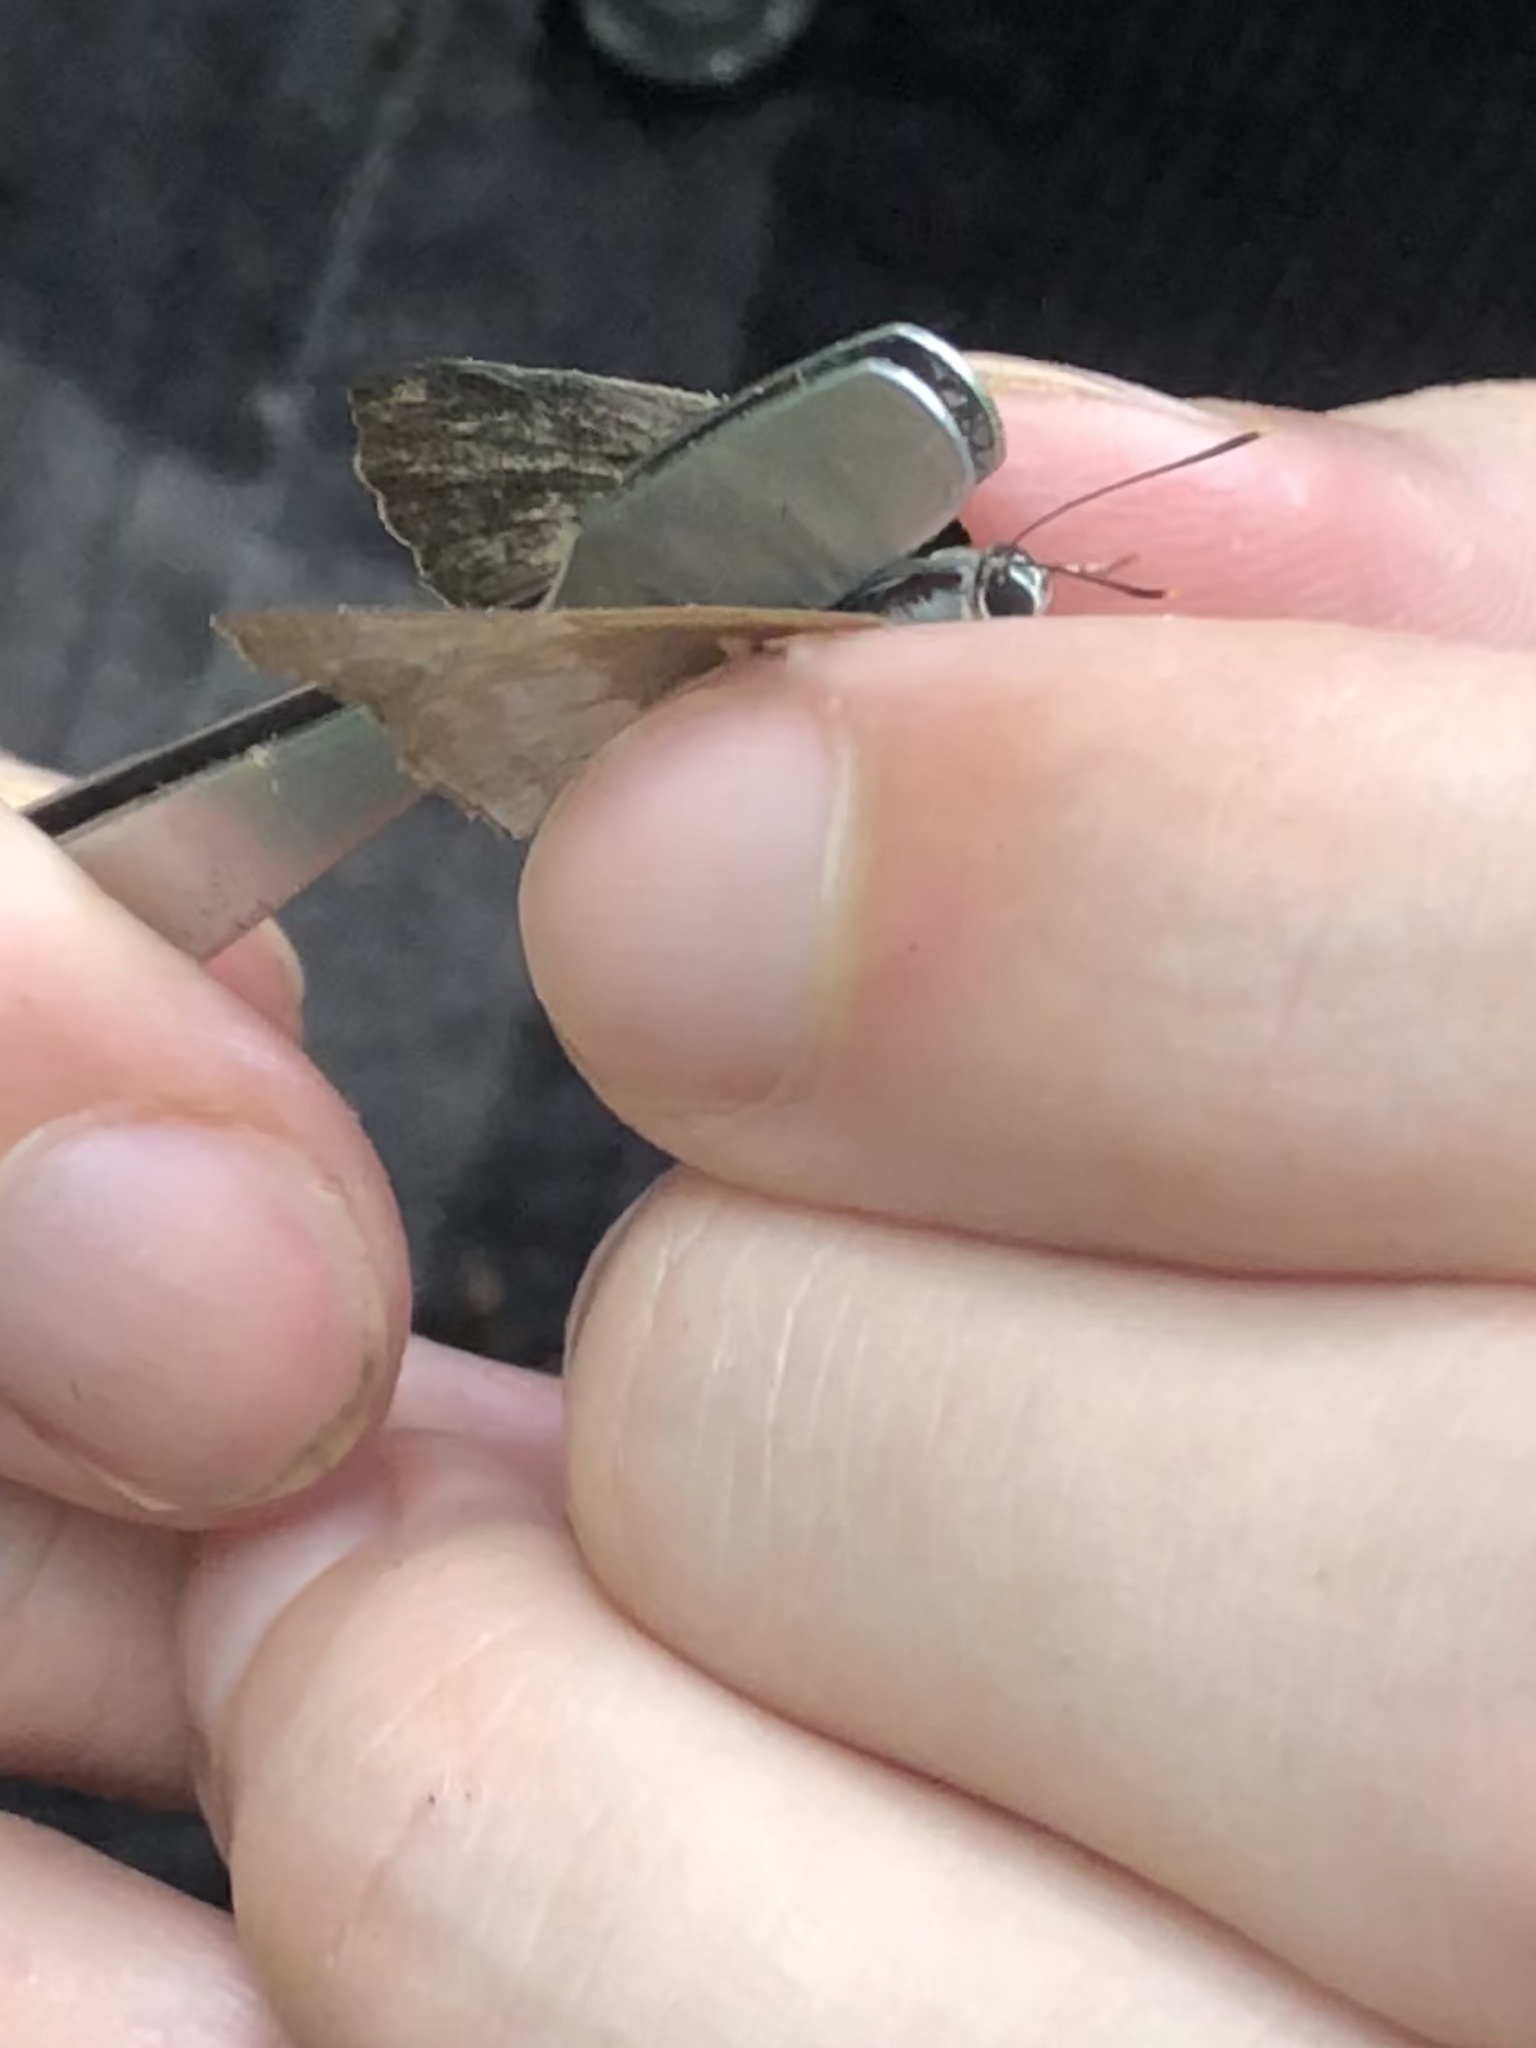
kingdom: Animalia
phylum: Arthropoda
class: Insecta
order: Lepidoptera
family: Lycaenidae
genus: Thecla
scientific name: Thecla phoenissa
